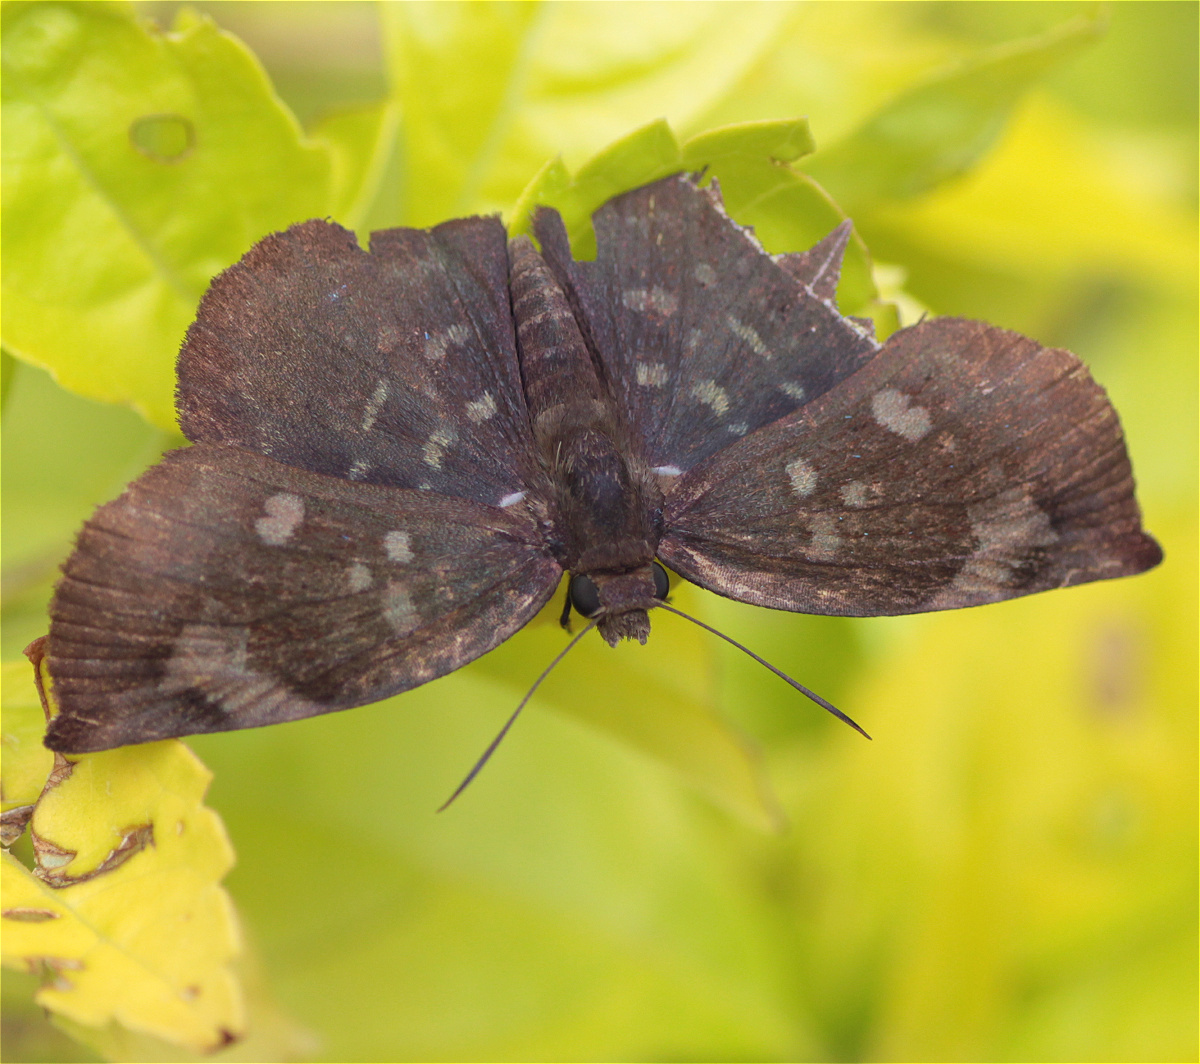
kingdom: Animalia
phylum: Arthropoda
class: Insecta
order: Lepidoptera
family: Hesperiidae
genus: Achlyodes
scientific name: Achlyodes thraso
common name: Sickle-winged skipper
